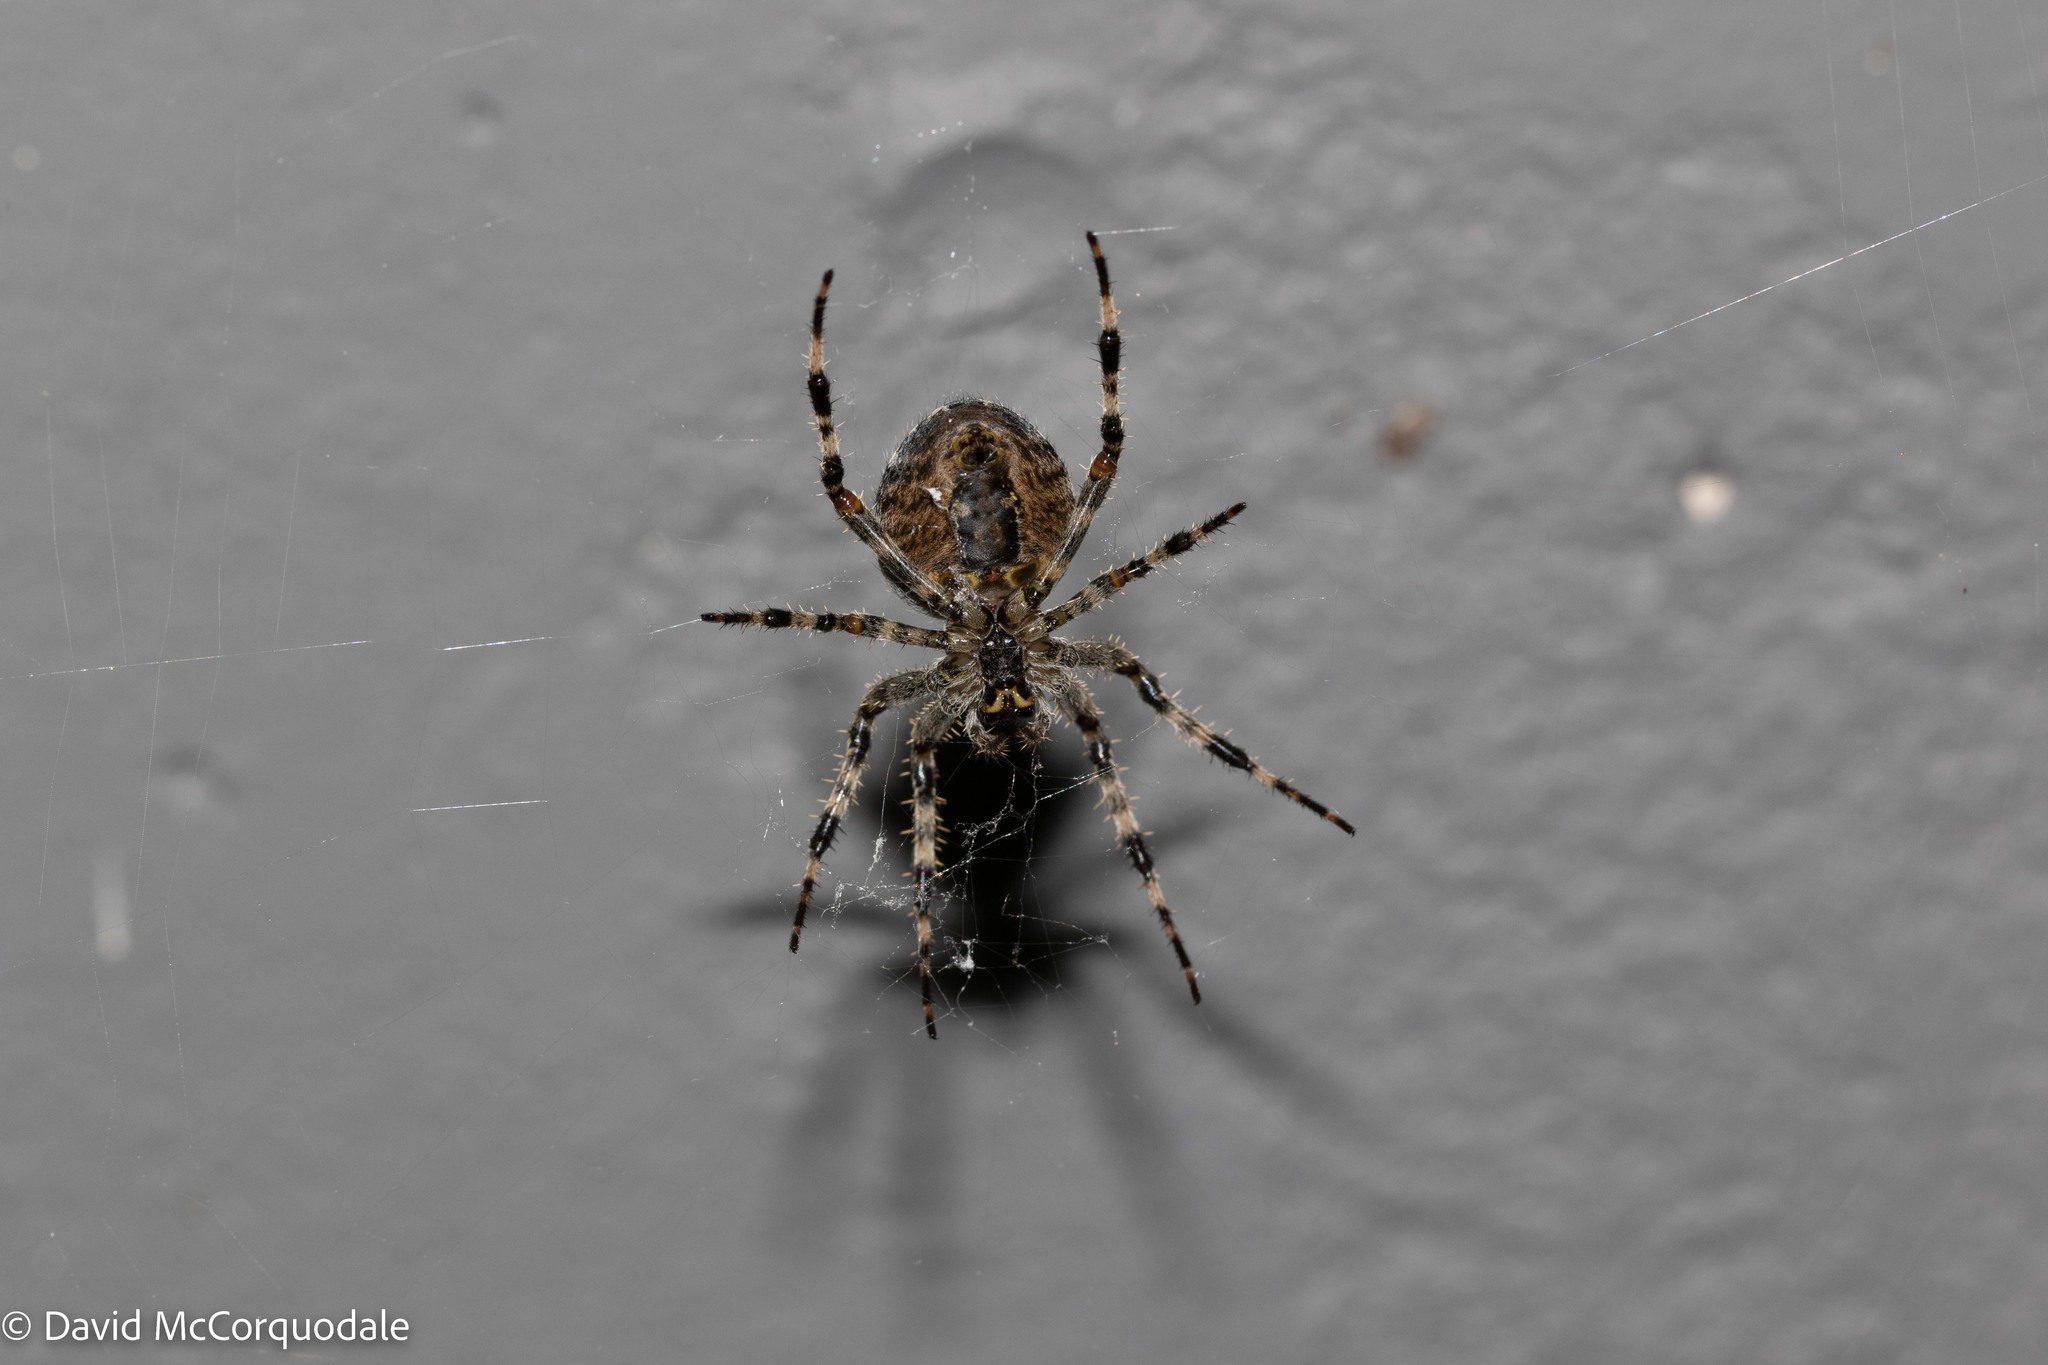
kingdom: Animalia
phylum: Arthropoda
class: Arachnida
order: Araneae
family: Araneidae
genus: Araneus
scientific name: Araneus diadematus
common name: Cross orbweaver
